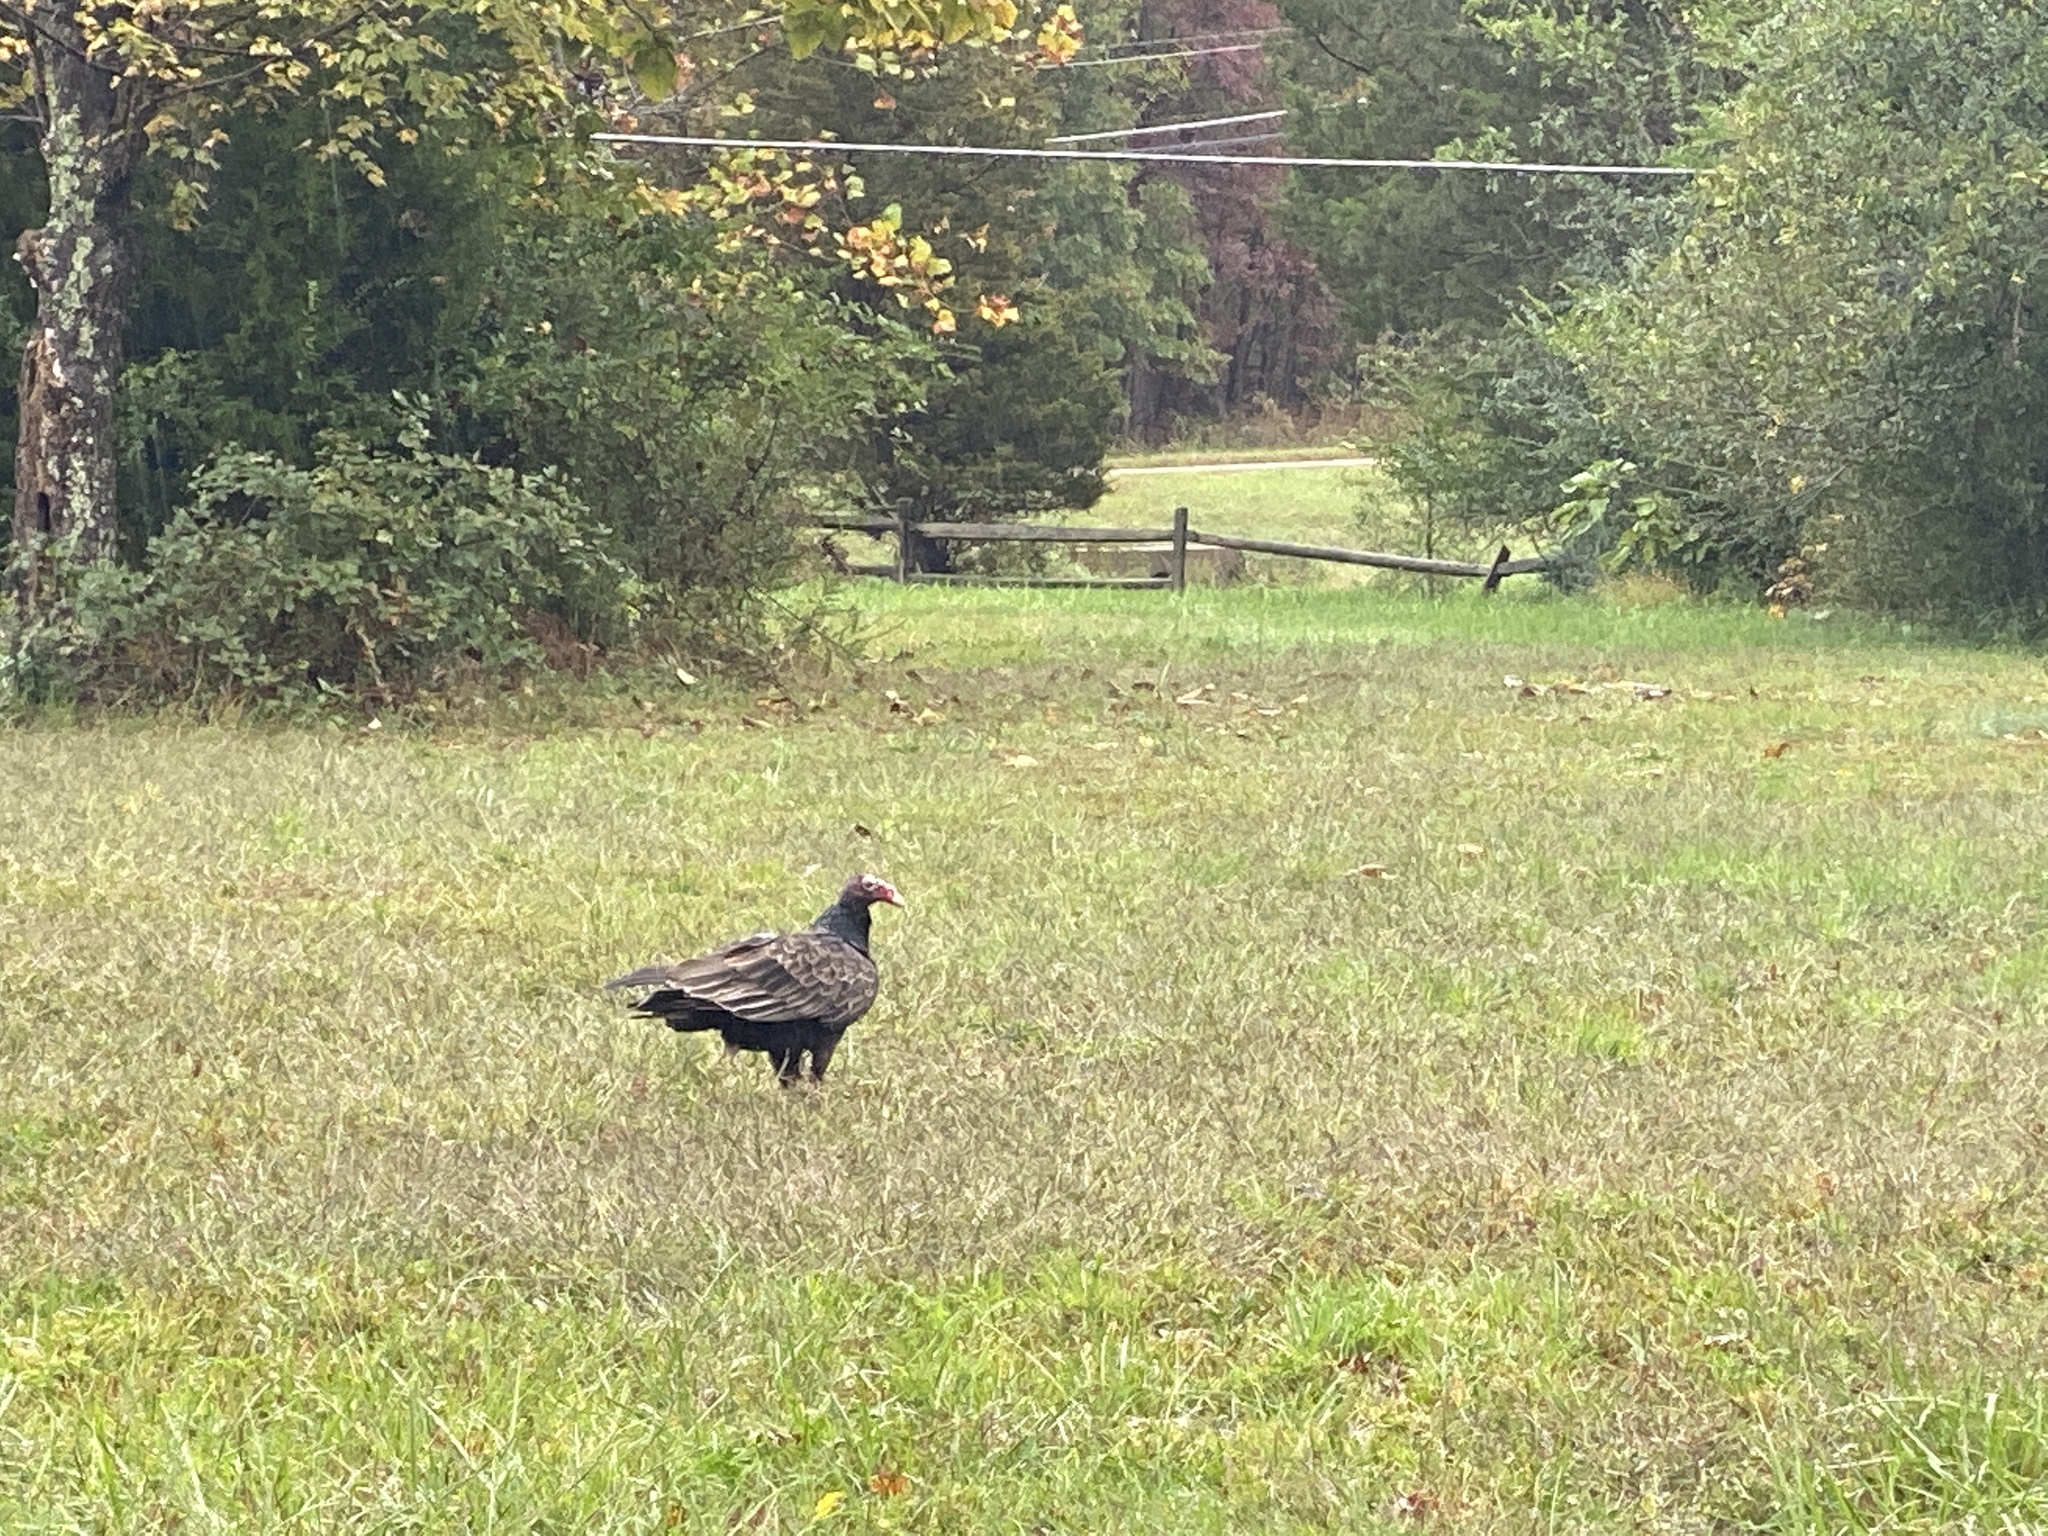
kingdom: Animalia
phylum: Chordata
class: Aves
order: Accipitriformes
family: Cathartidae
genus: Cathartes
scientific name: Cathartes aura
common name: Turkey vulture
